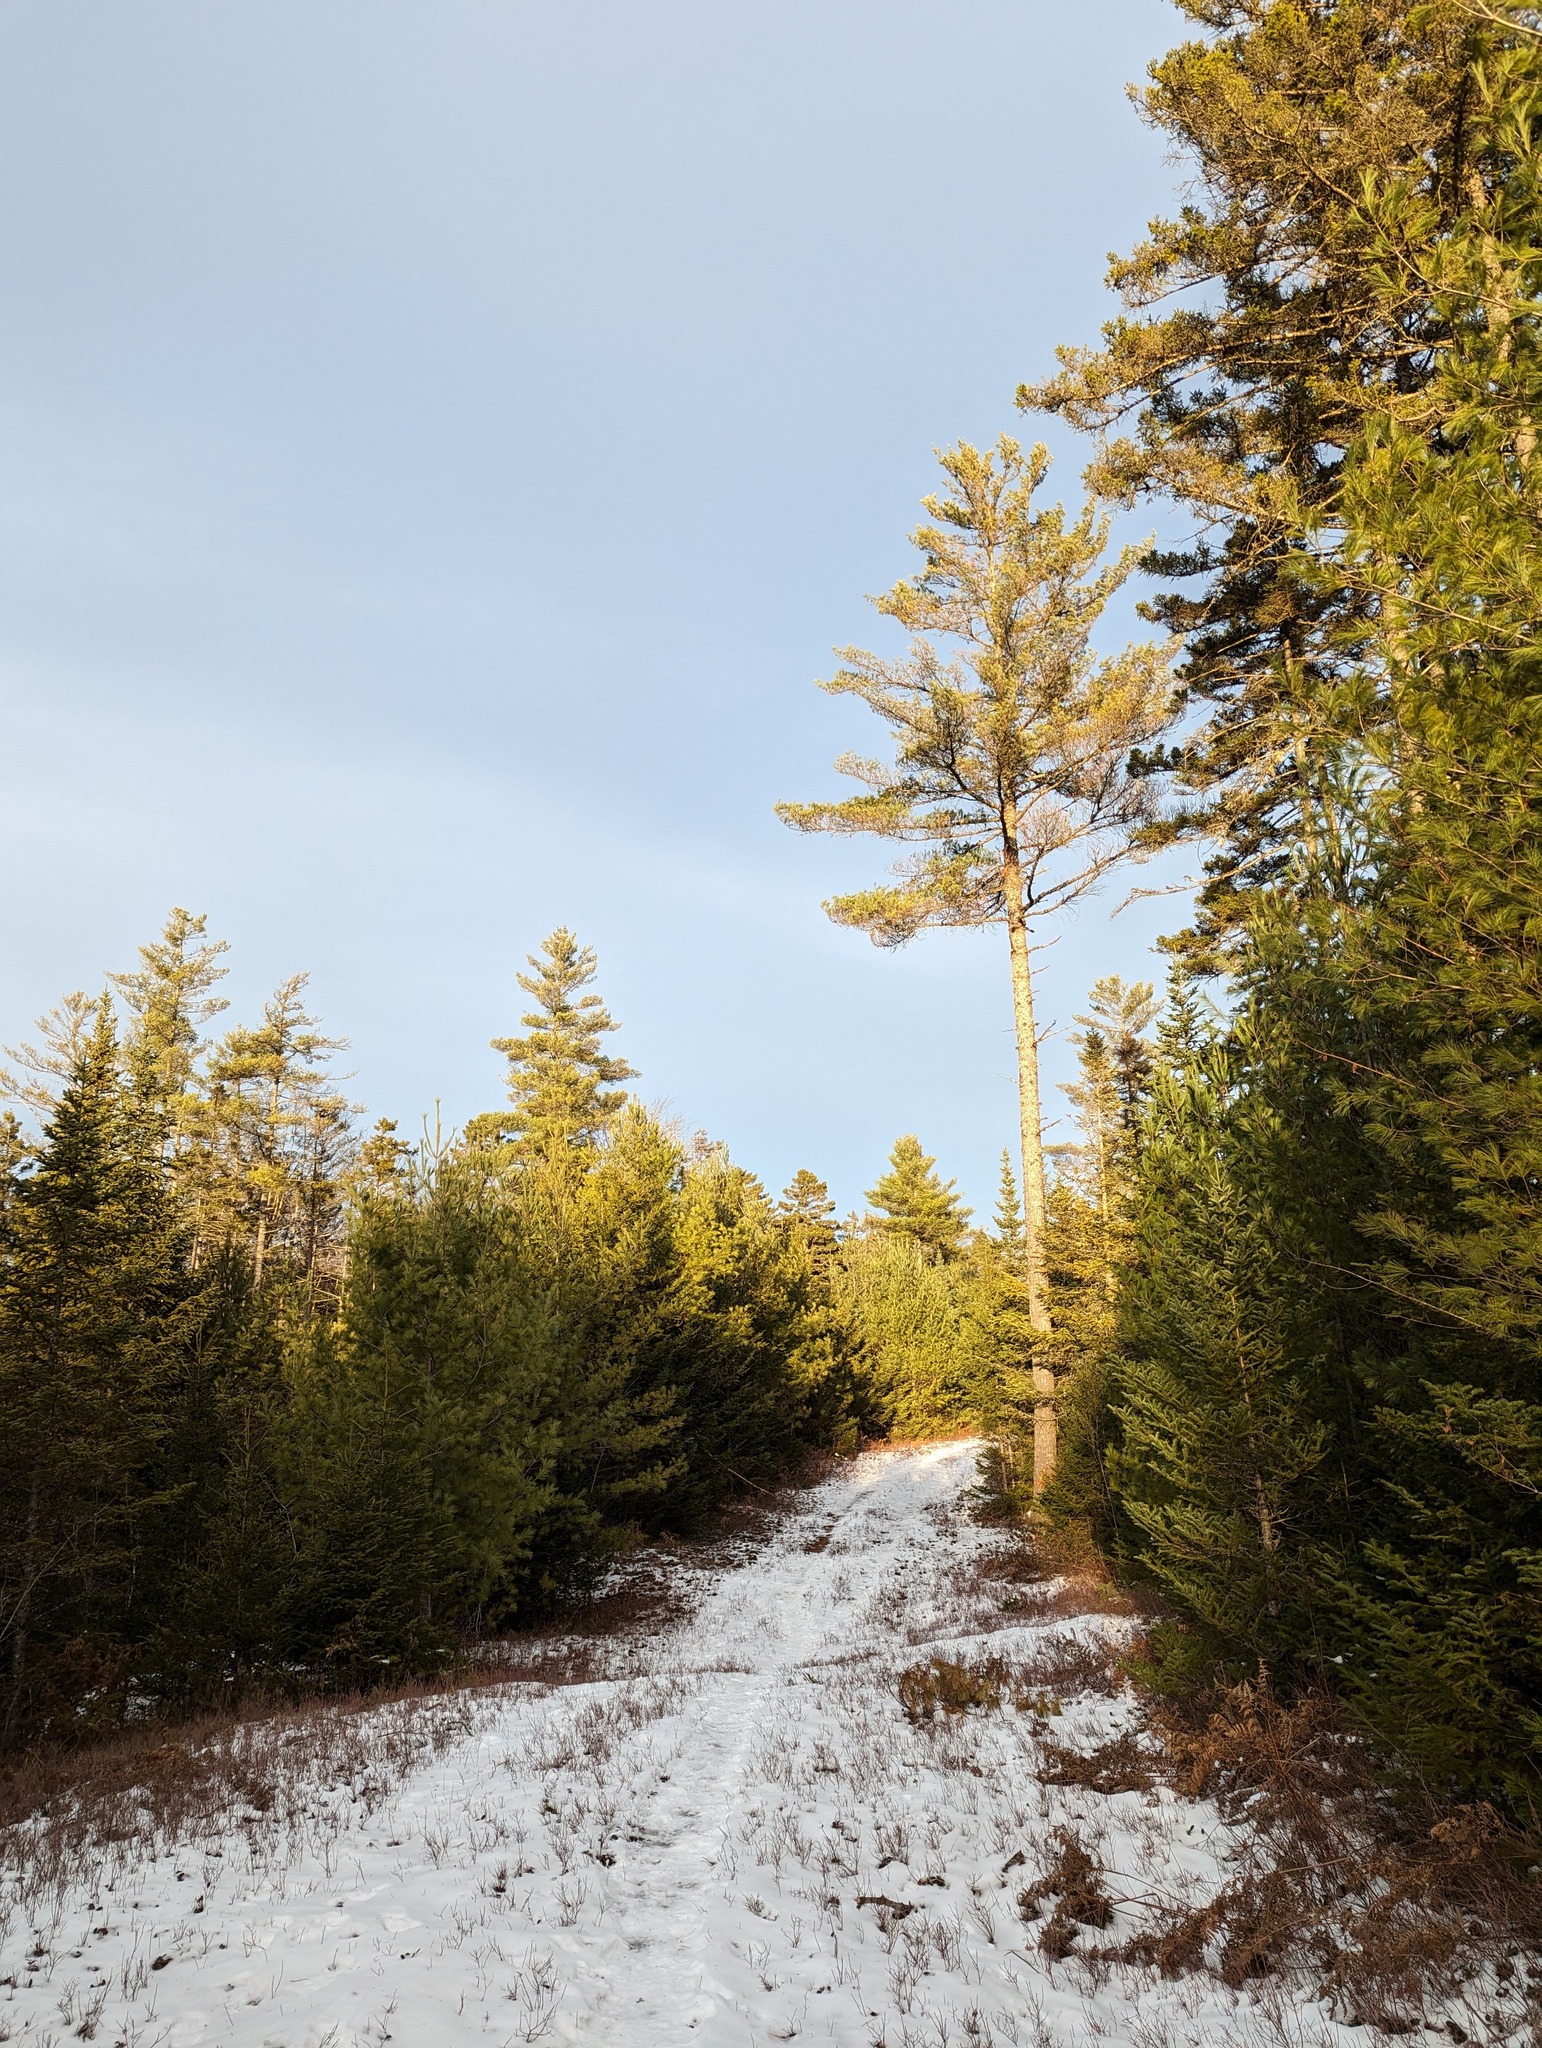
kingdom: Plantae
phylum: Tracheophyta
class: Pinopsida
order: Pinales
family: Pinaceae
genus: Pinus
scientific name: Pinus strobus
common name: Weymouth pine
